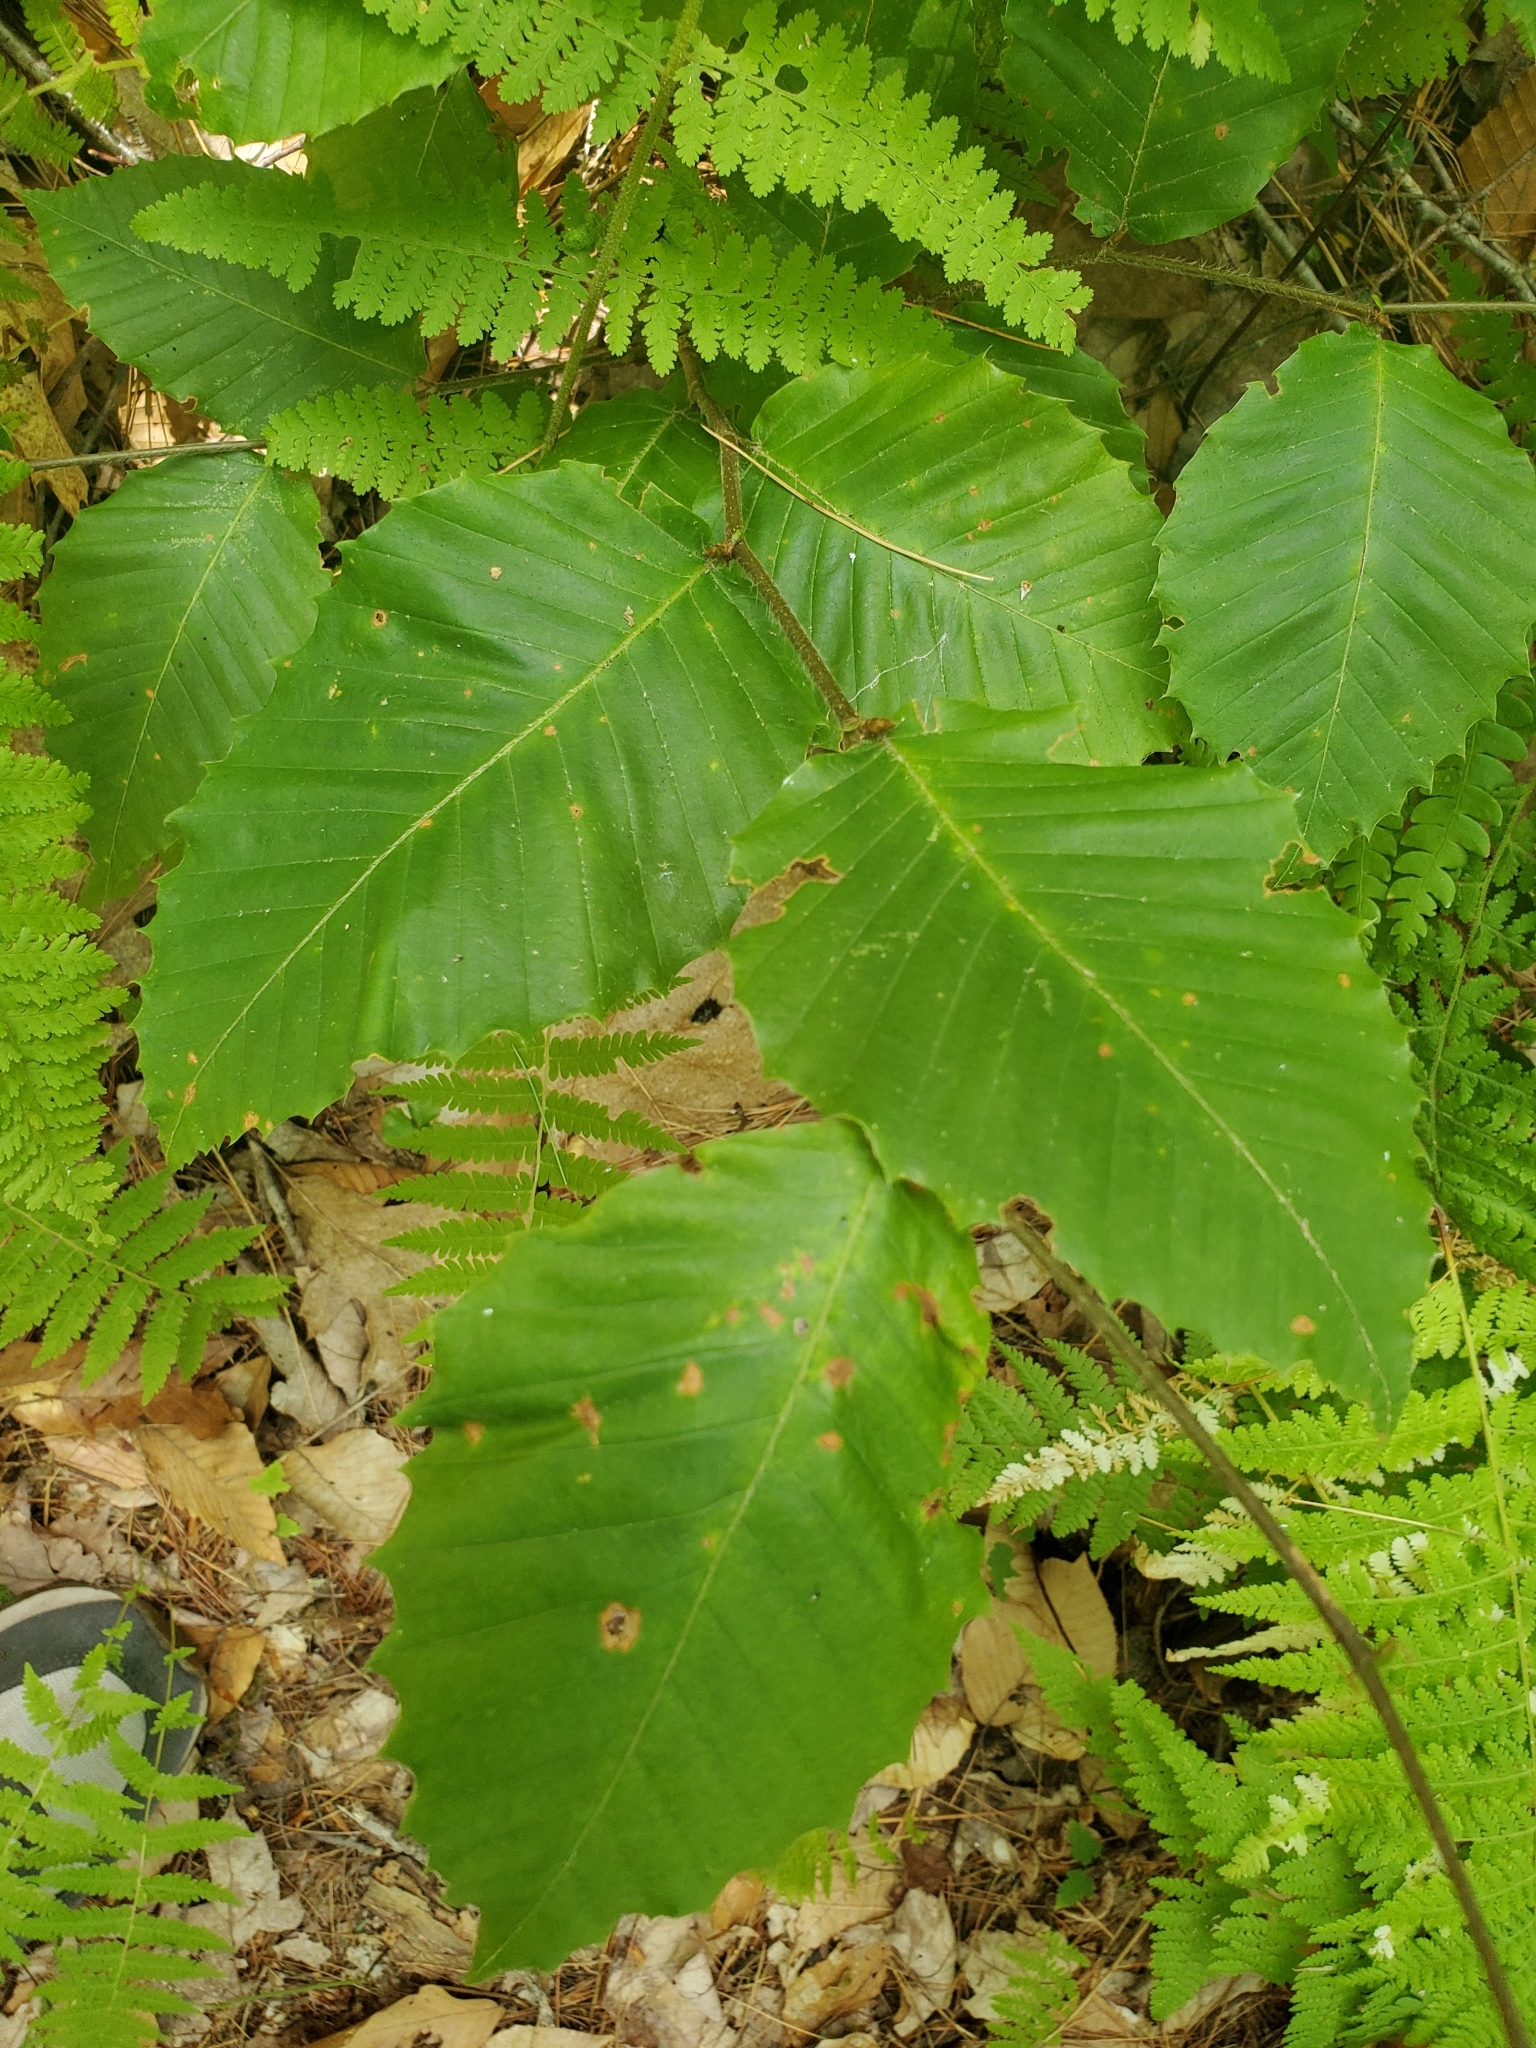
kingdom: Plantae
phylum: Tracheophyta
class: Magnoliopsida
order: Fagales
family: Fagaceae
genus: Fagus
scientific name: Fagus grandifolia
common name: American beech
